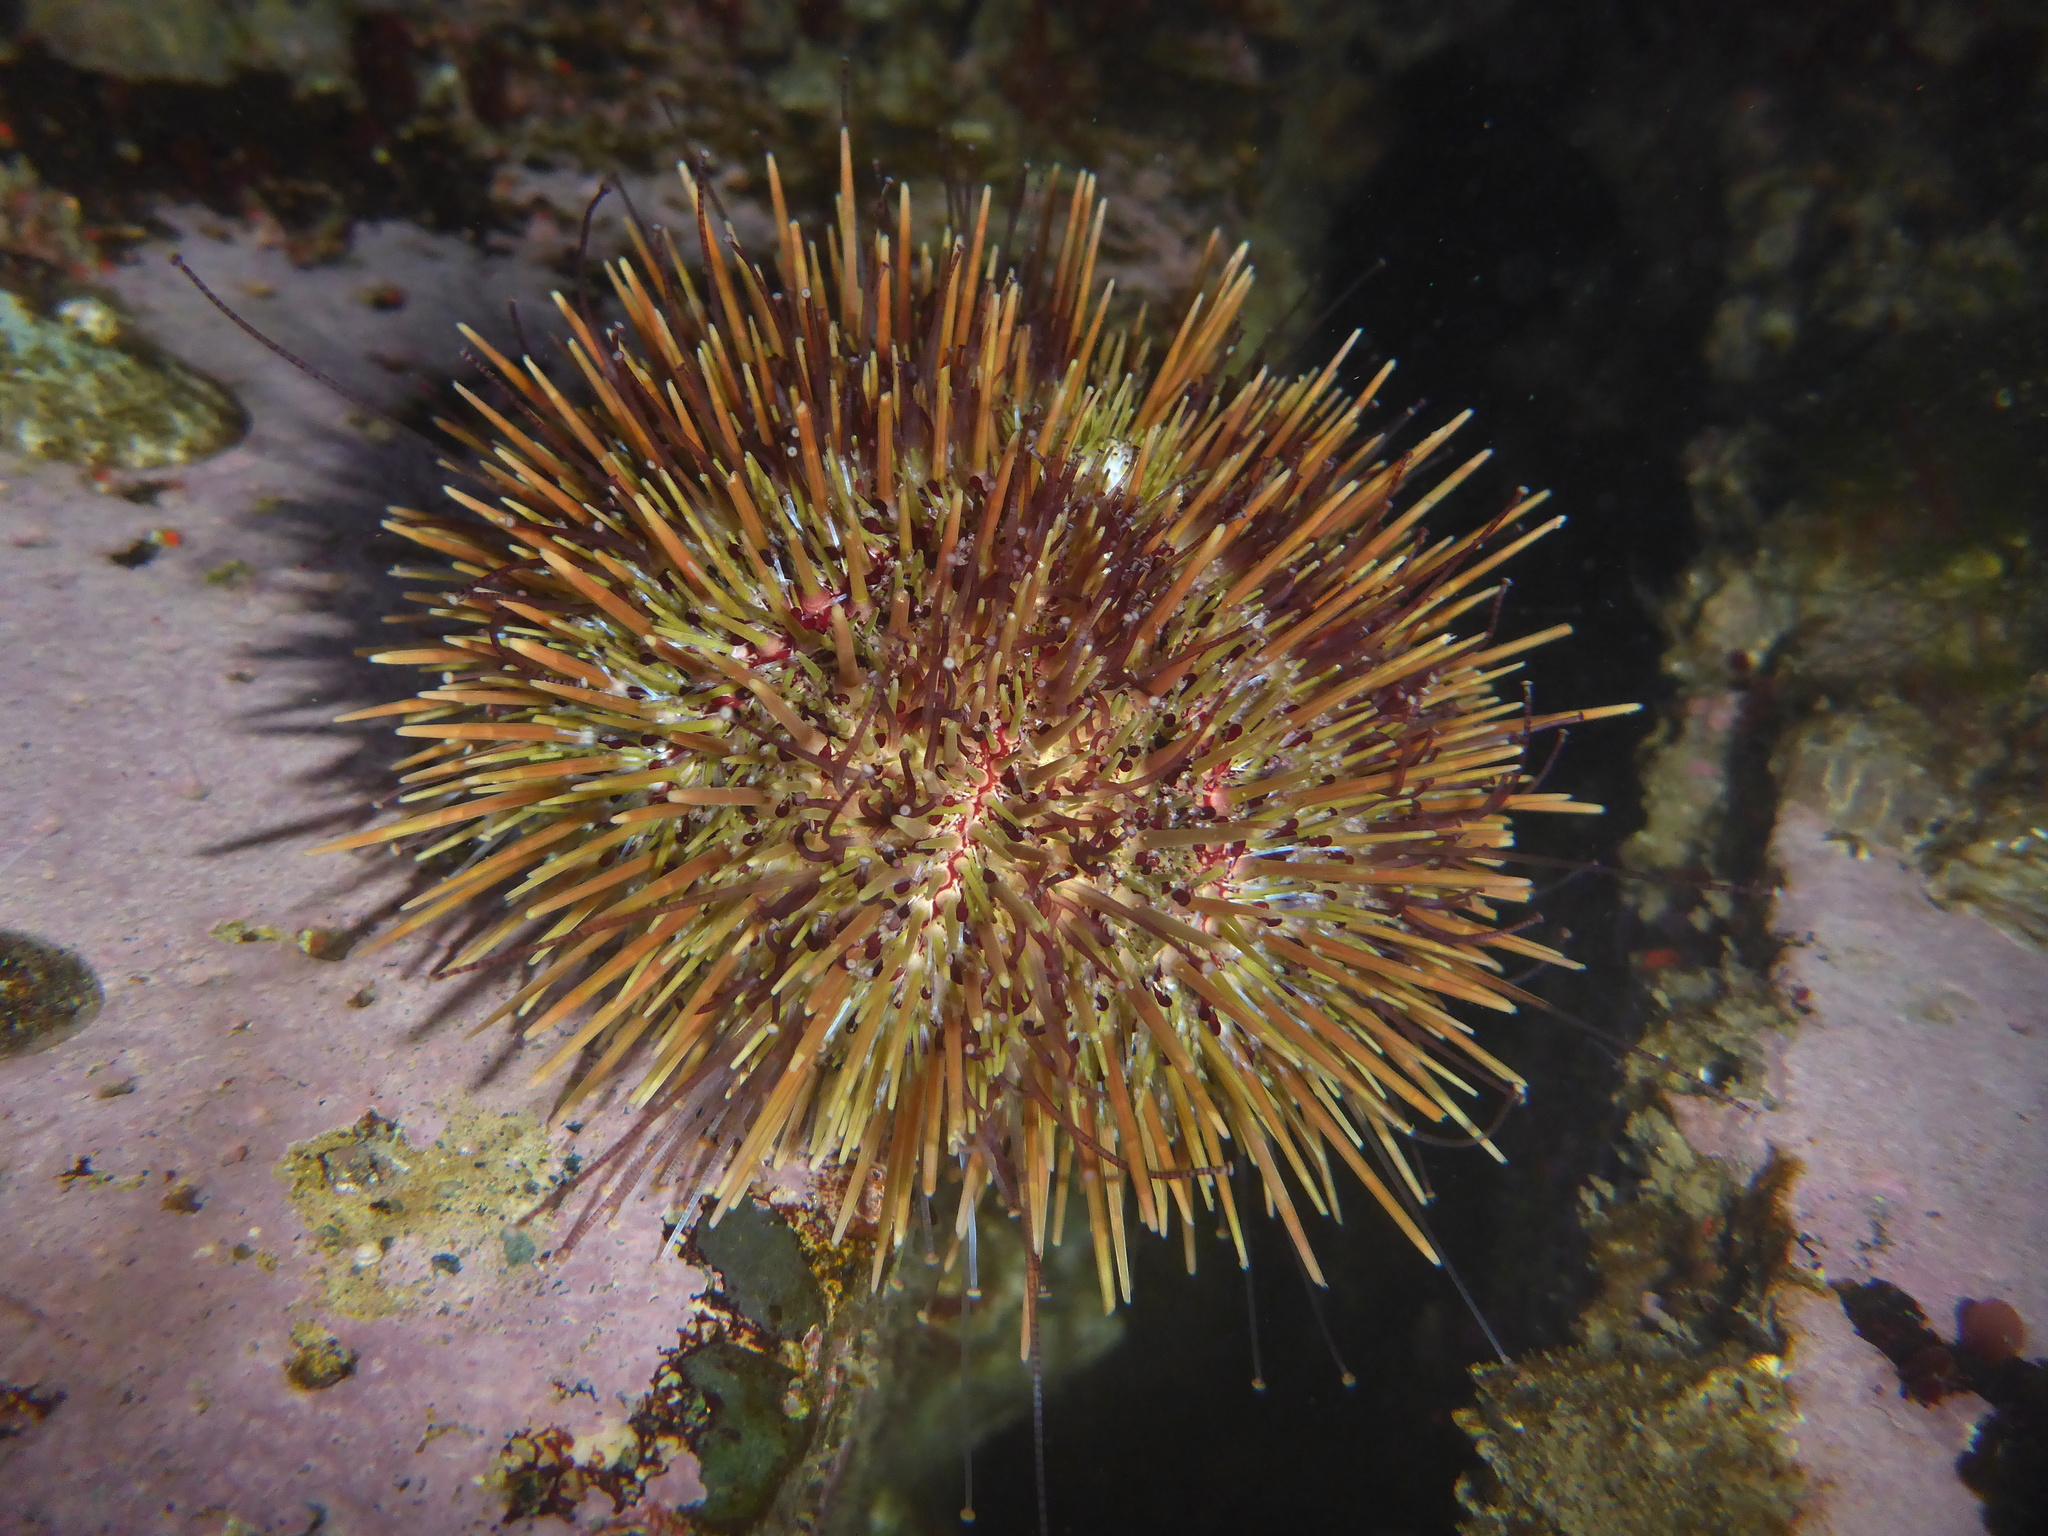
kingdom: Animalia
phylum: Echinodermata
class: Echinoidea
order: Camarodonta
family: Strongylocentrotidae
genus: Strongylocentrotus
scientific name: Strongylocentrotus droebachiensis
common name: Northern sea urchin
